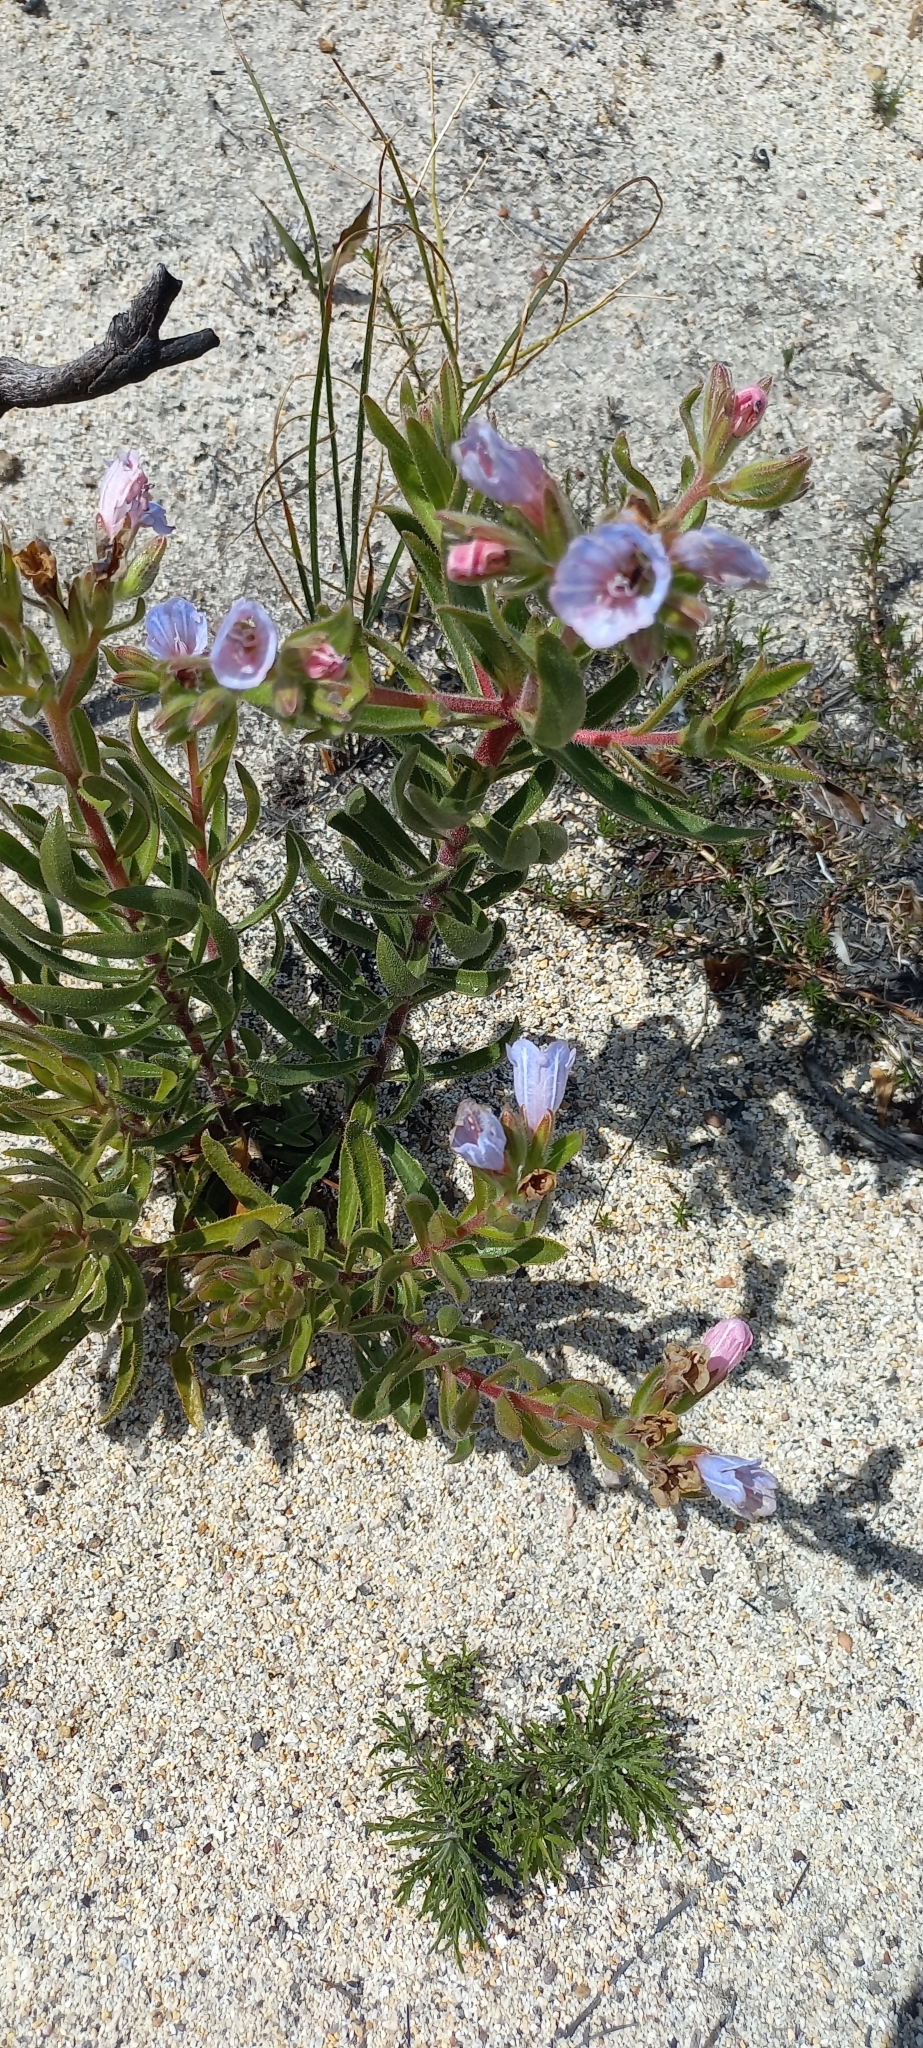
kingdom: Plantae
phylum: Tracheophyta
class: Magnoliopsida
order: Boraginales
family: Boraginaceae
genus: Lobostemon
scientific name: Lobostemon fruticosus
